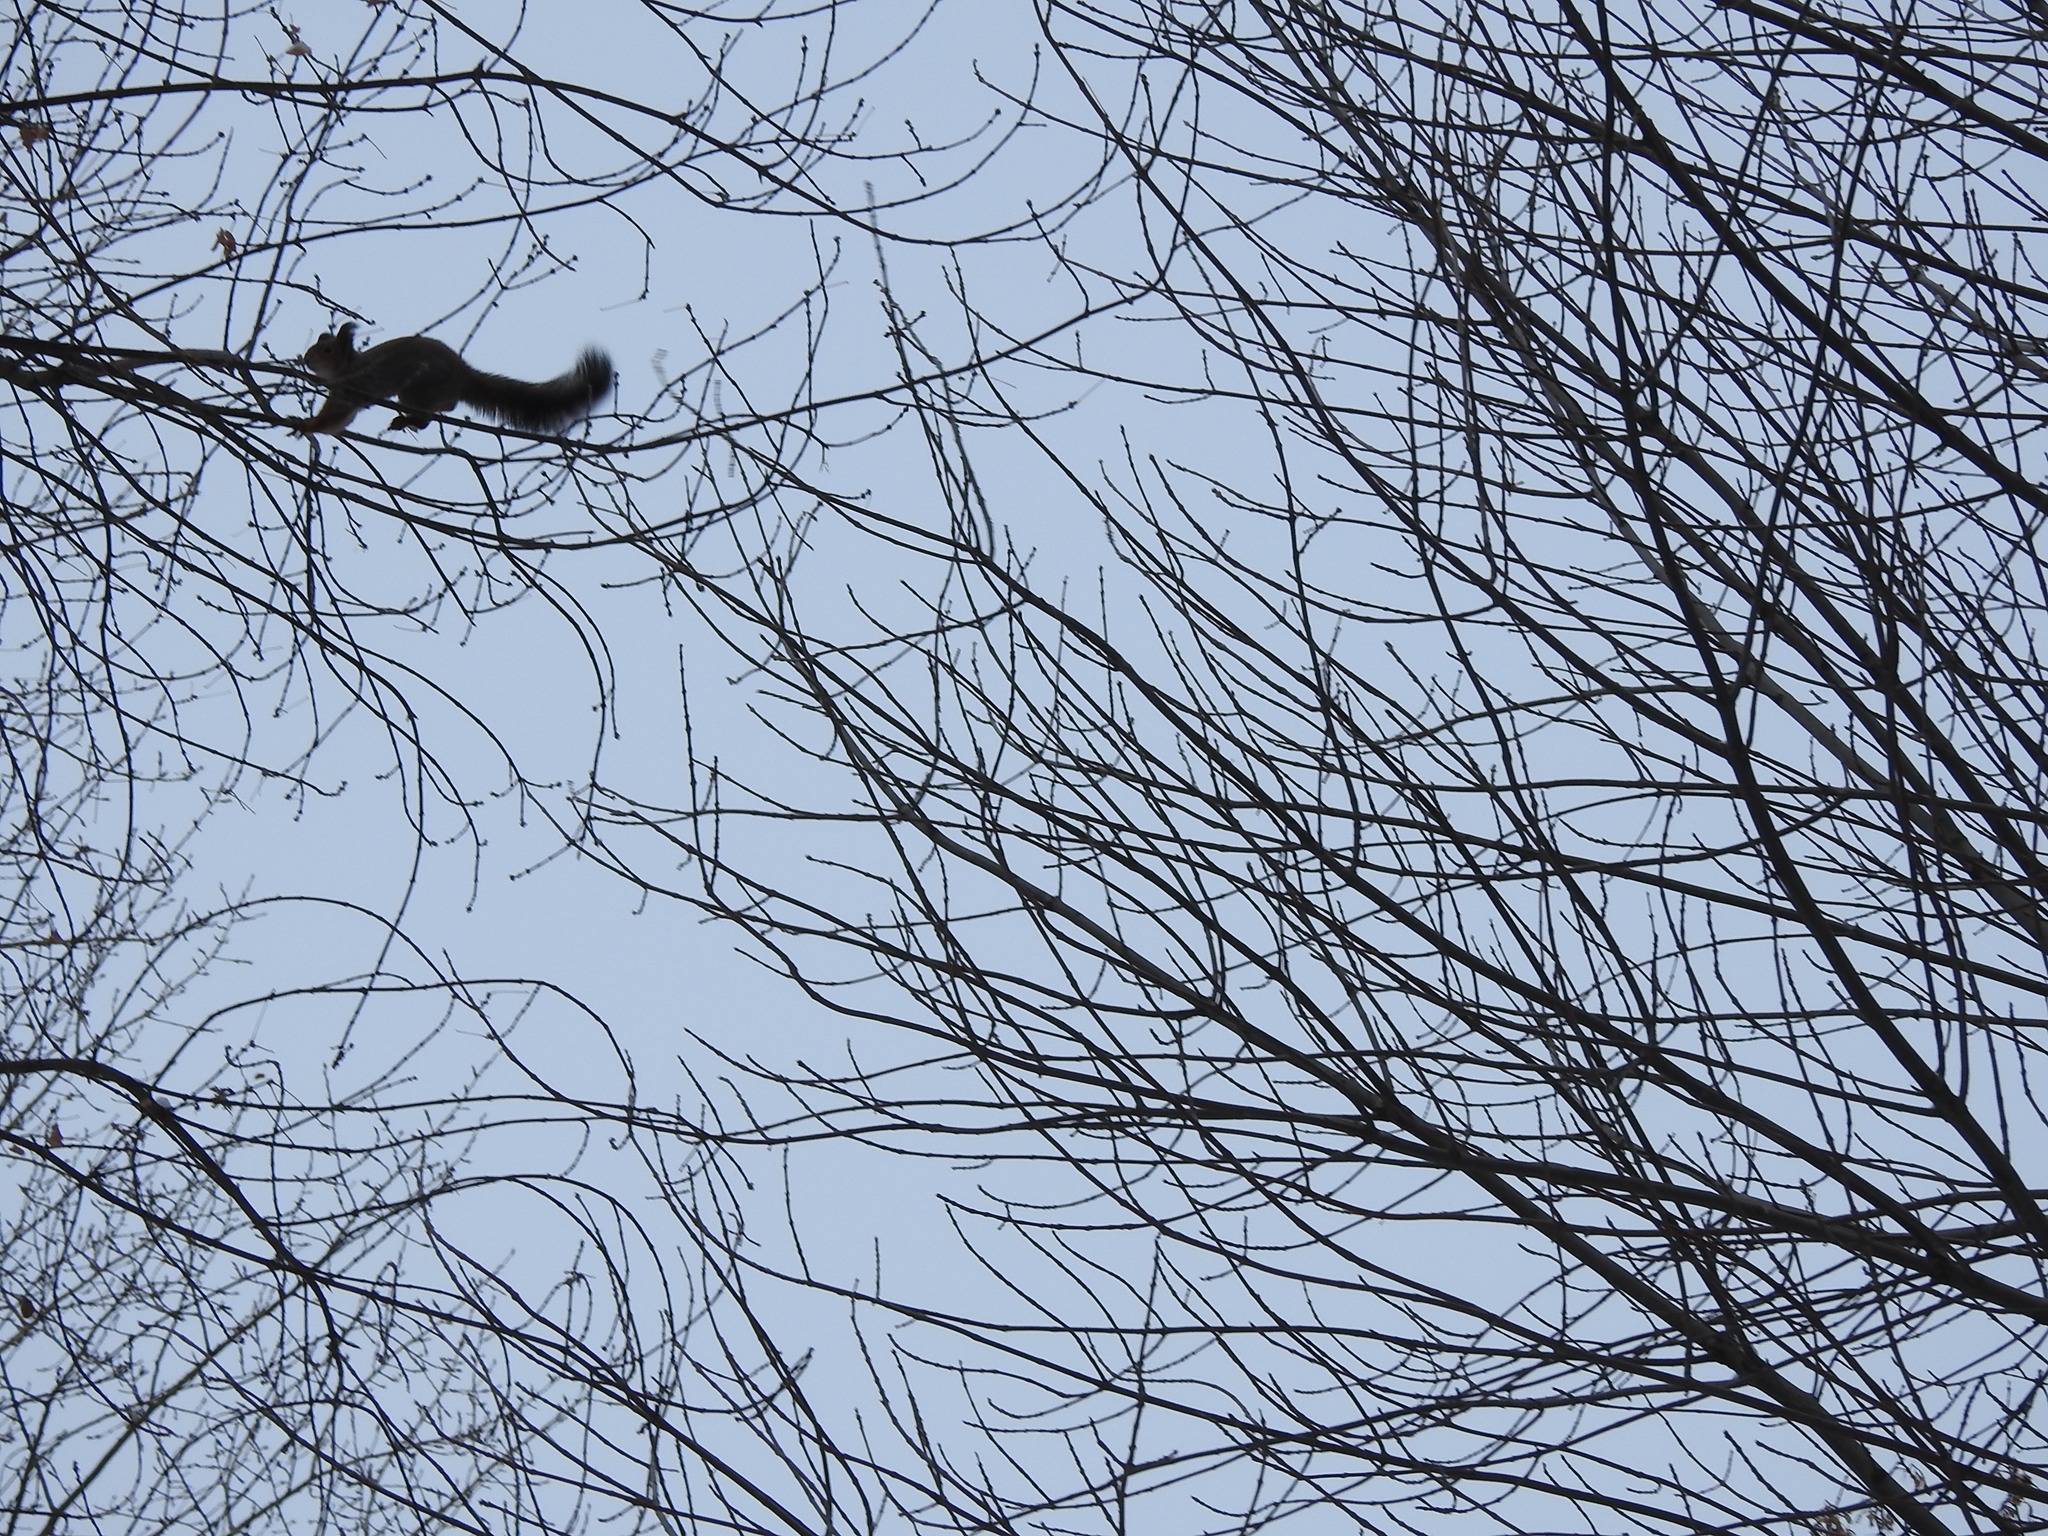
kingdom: Animalia
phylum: Chordata
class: Mammalia
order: Rodentia
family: Sciuridae
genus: Sciurus
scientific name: Sciurus vulgaris
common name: Eurasian red squirrel
